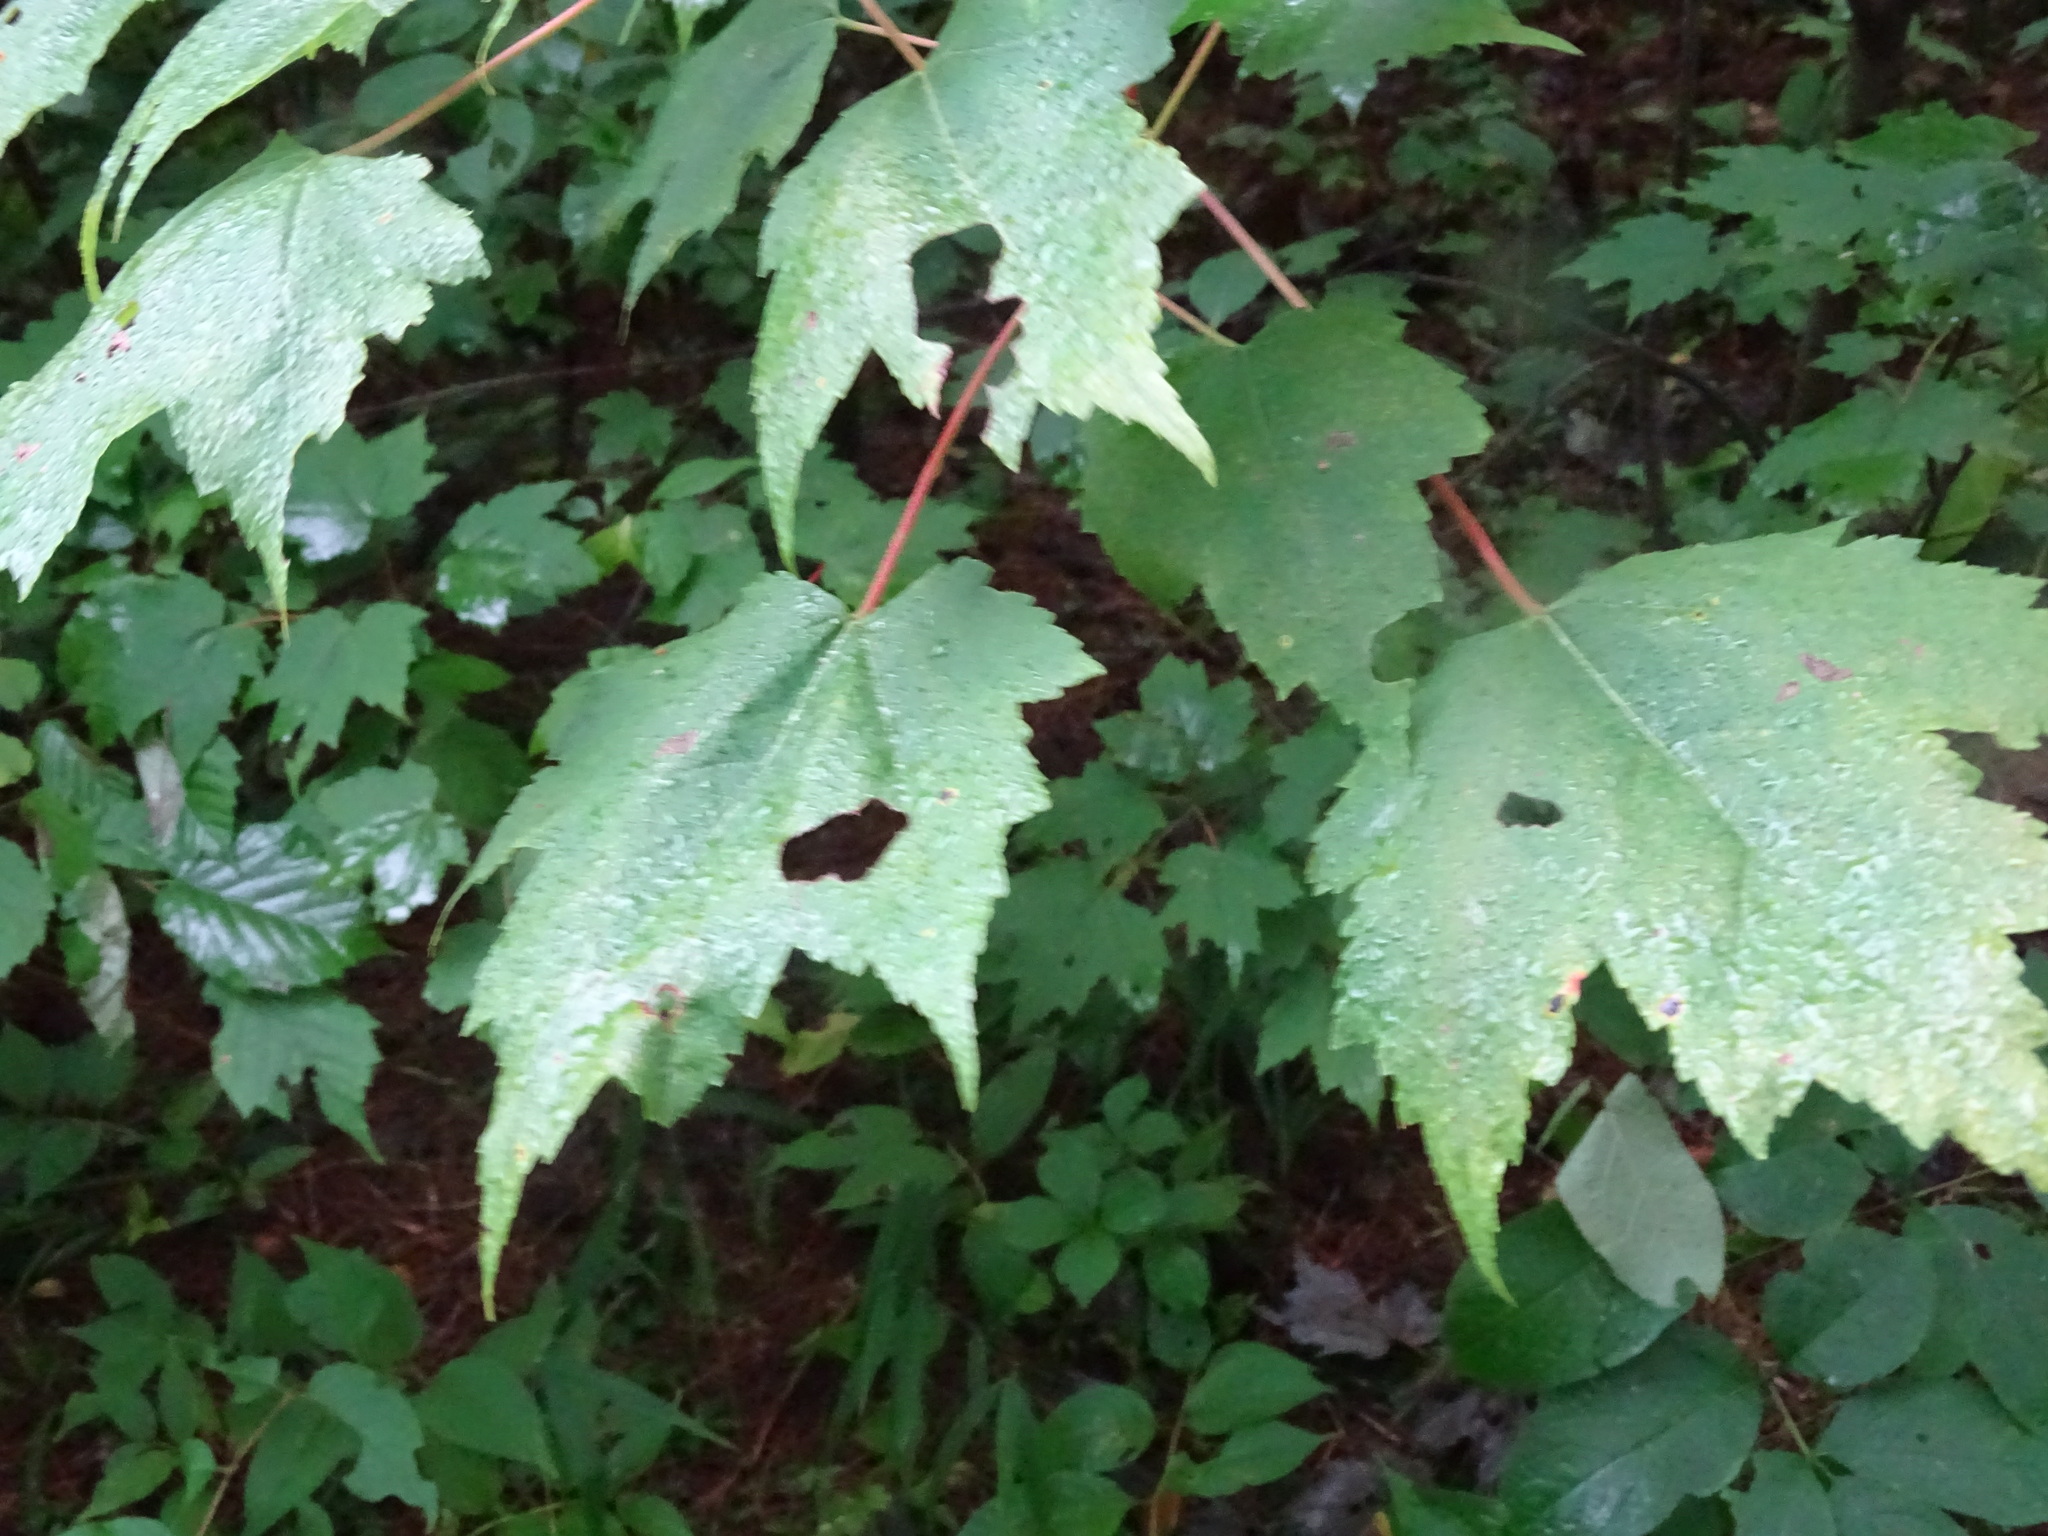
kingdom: Plantae
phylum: Tracheophyta
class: Magnoliopsida
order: Sapindales
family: Sapindaceae
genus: Acer
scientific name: Acer rubrum
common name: Red maple
